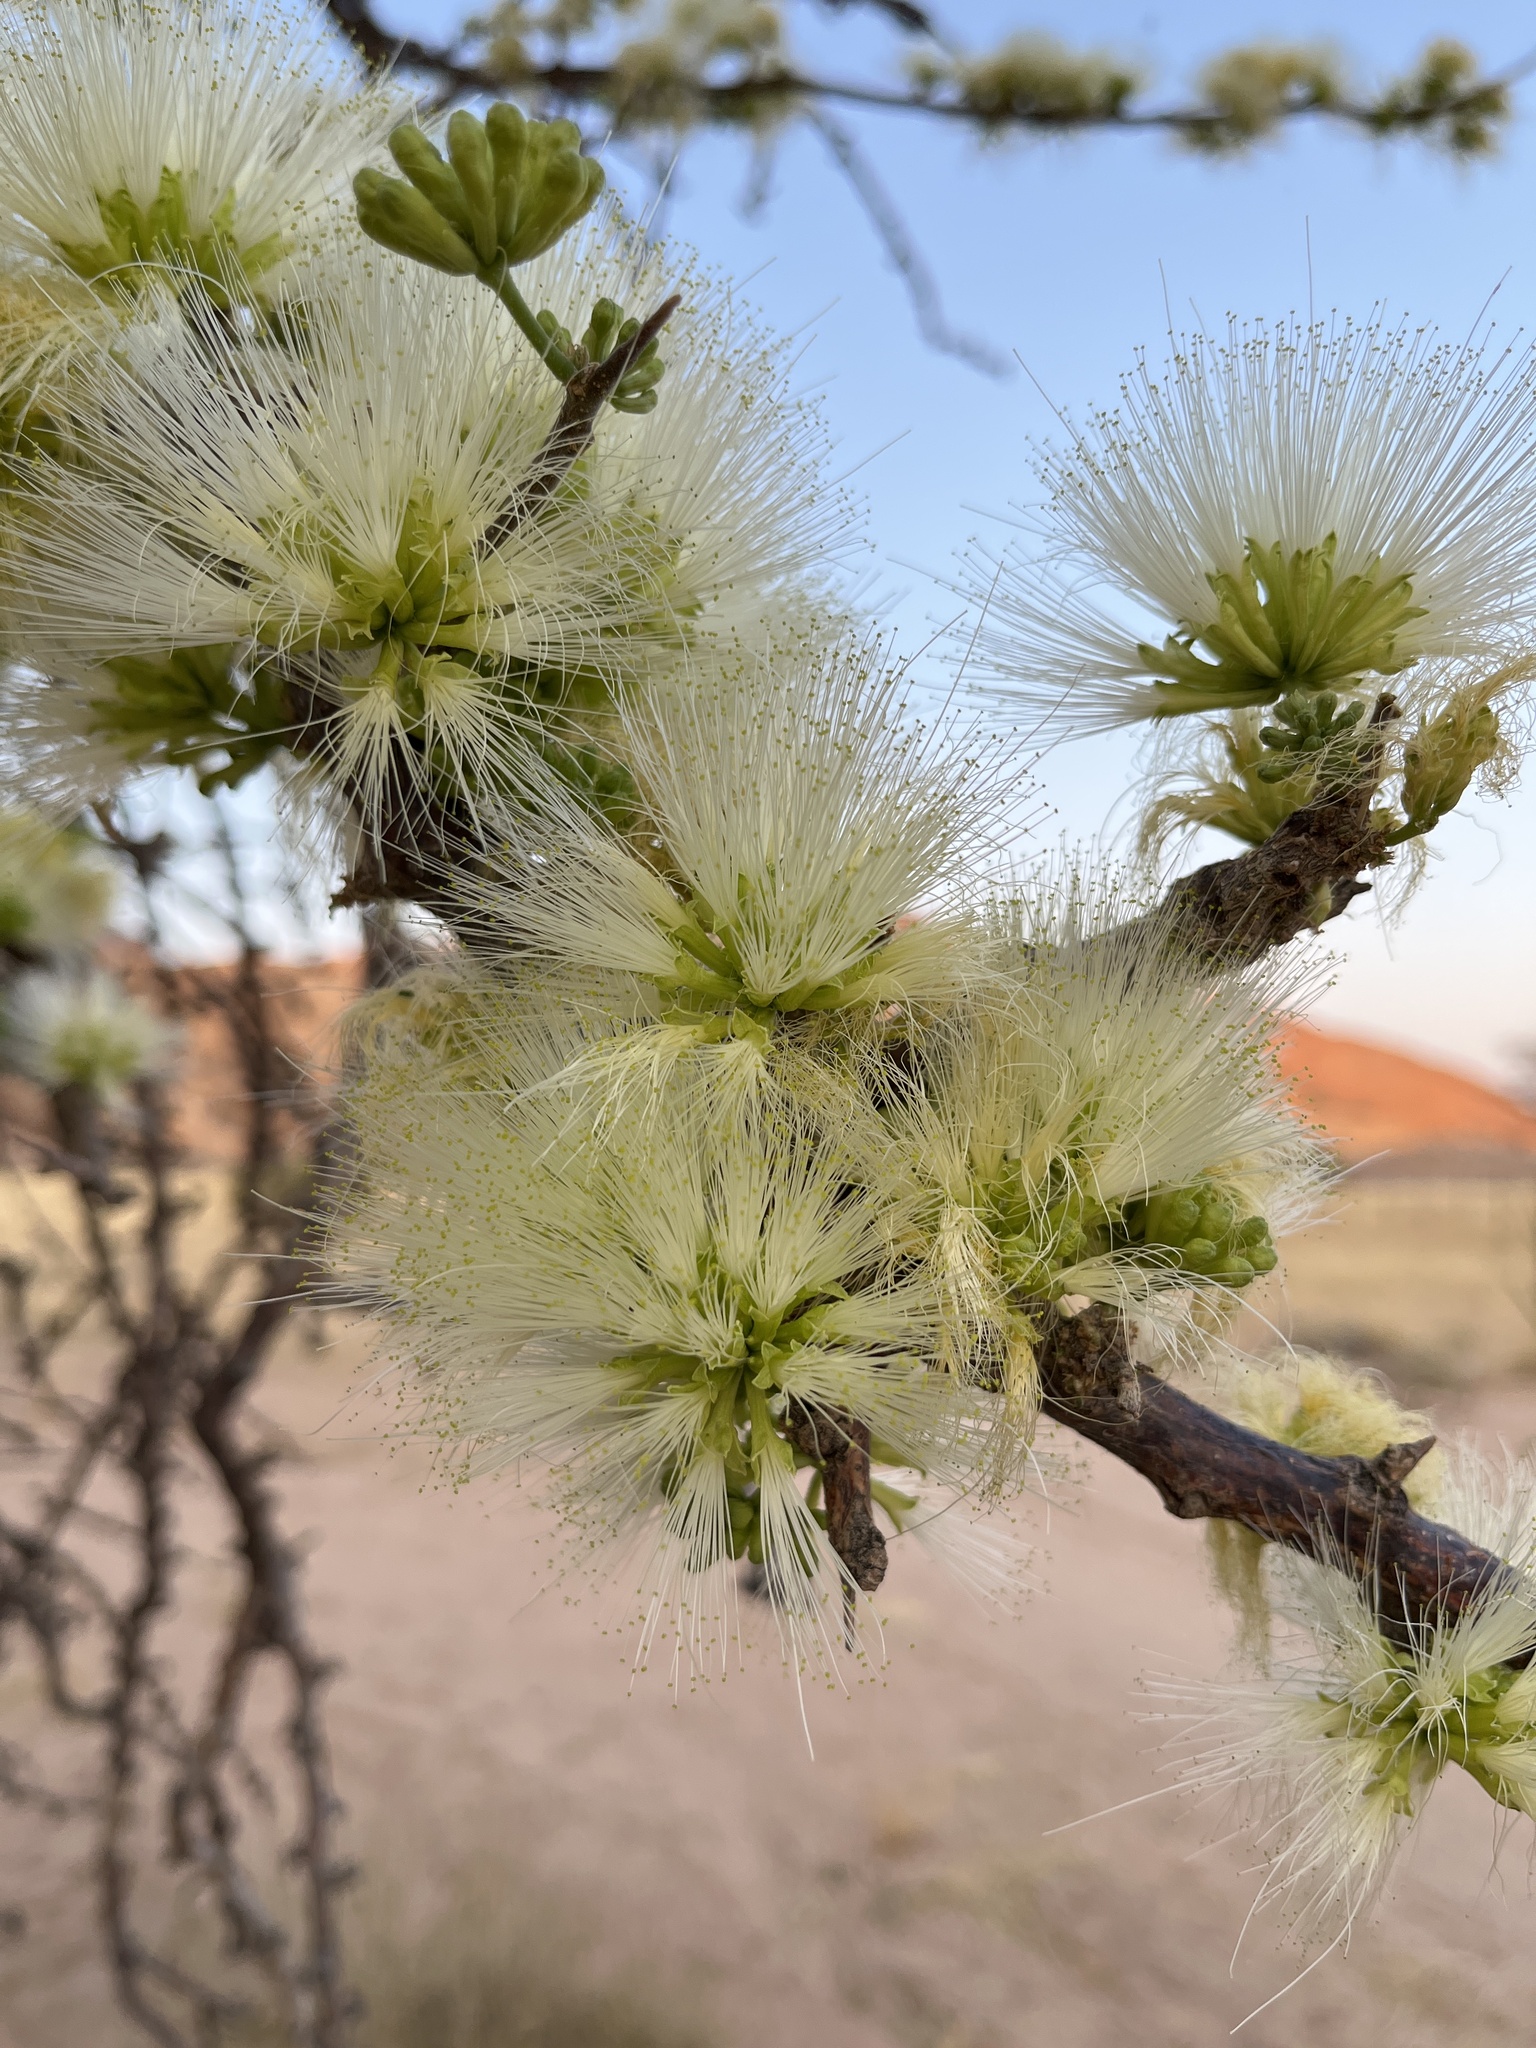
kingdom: Plantae
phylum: Tracheophyta
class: Magnoliopsida
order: Fabales
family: Fabaceae
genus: Albizia
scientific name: Albizia anthelmintica
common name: Worm-bark false-thorn
